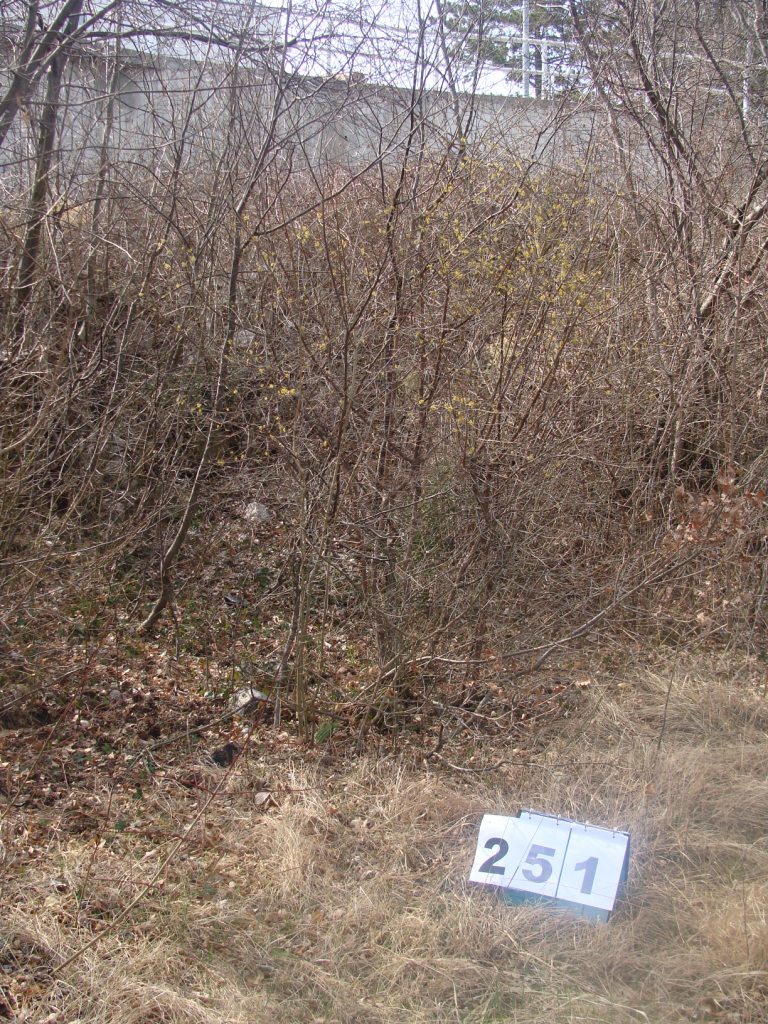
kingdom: Plantae
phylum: Tracheophyta
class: Magnoliopsida
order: Cornales
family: Cornaceae
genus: Cornus
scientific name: Cornus mas
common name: Cornelian-cherry
